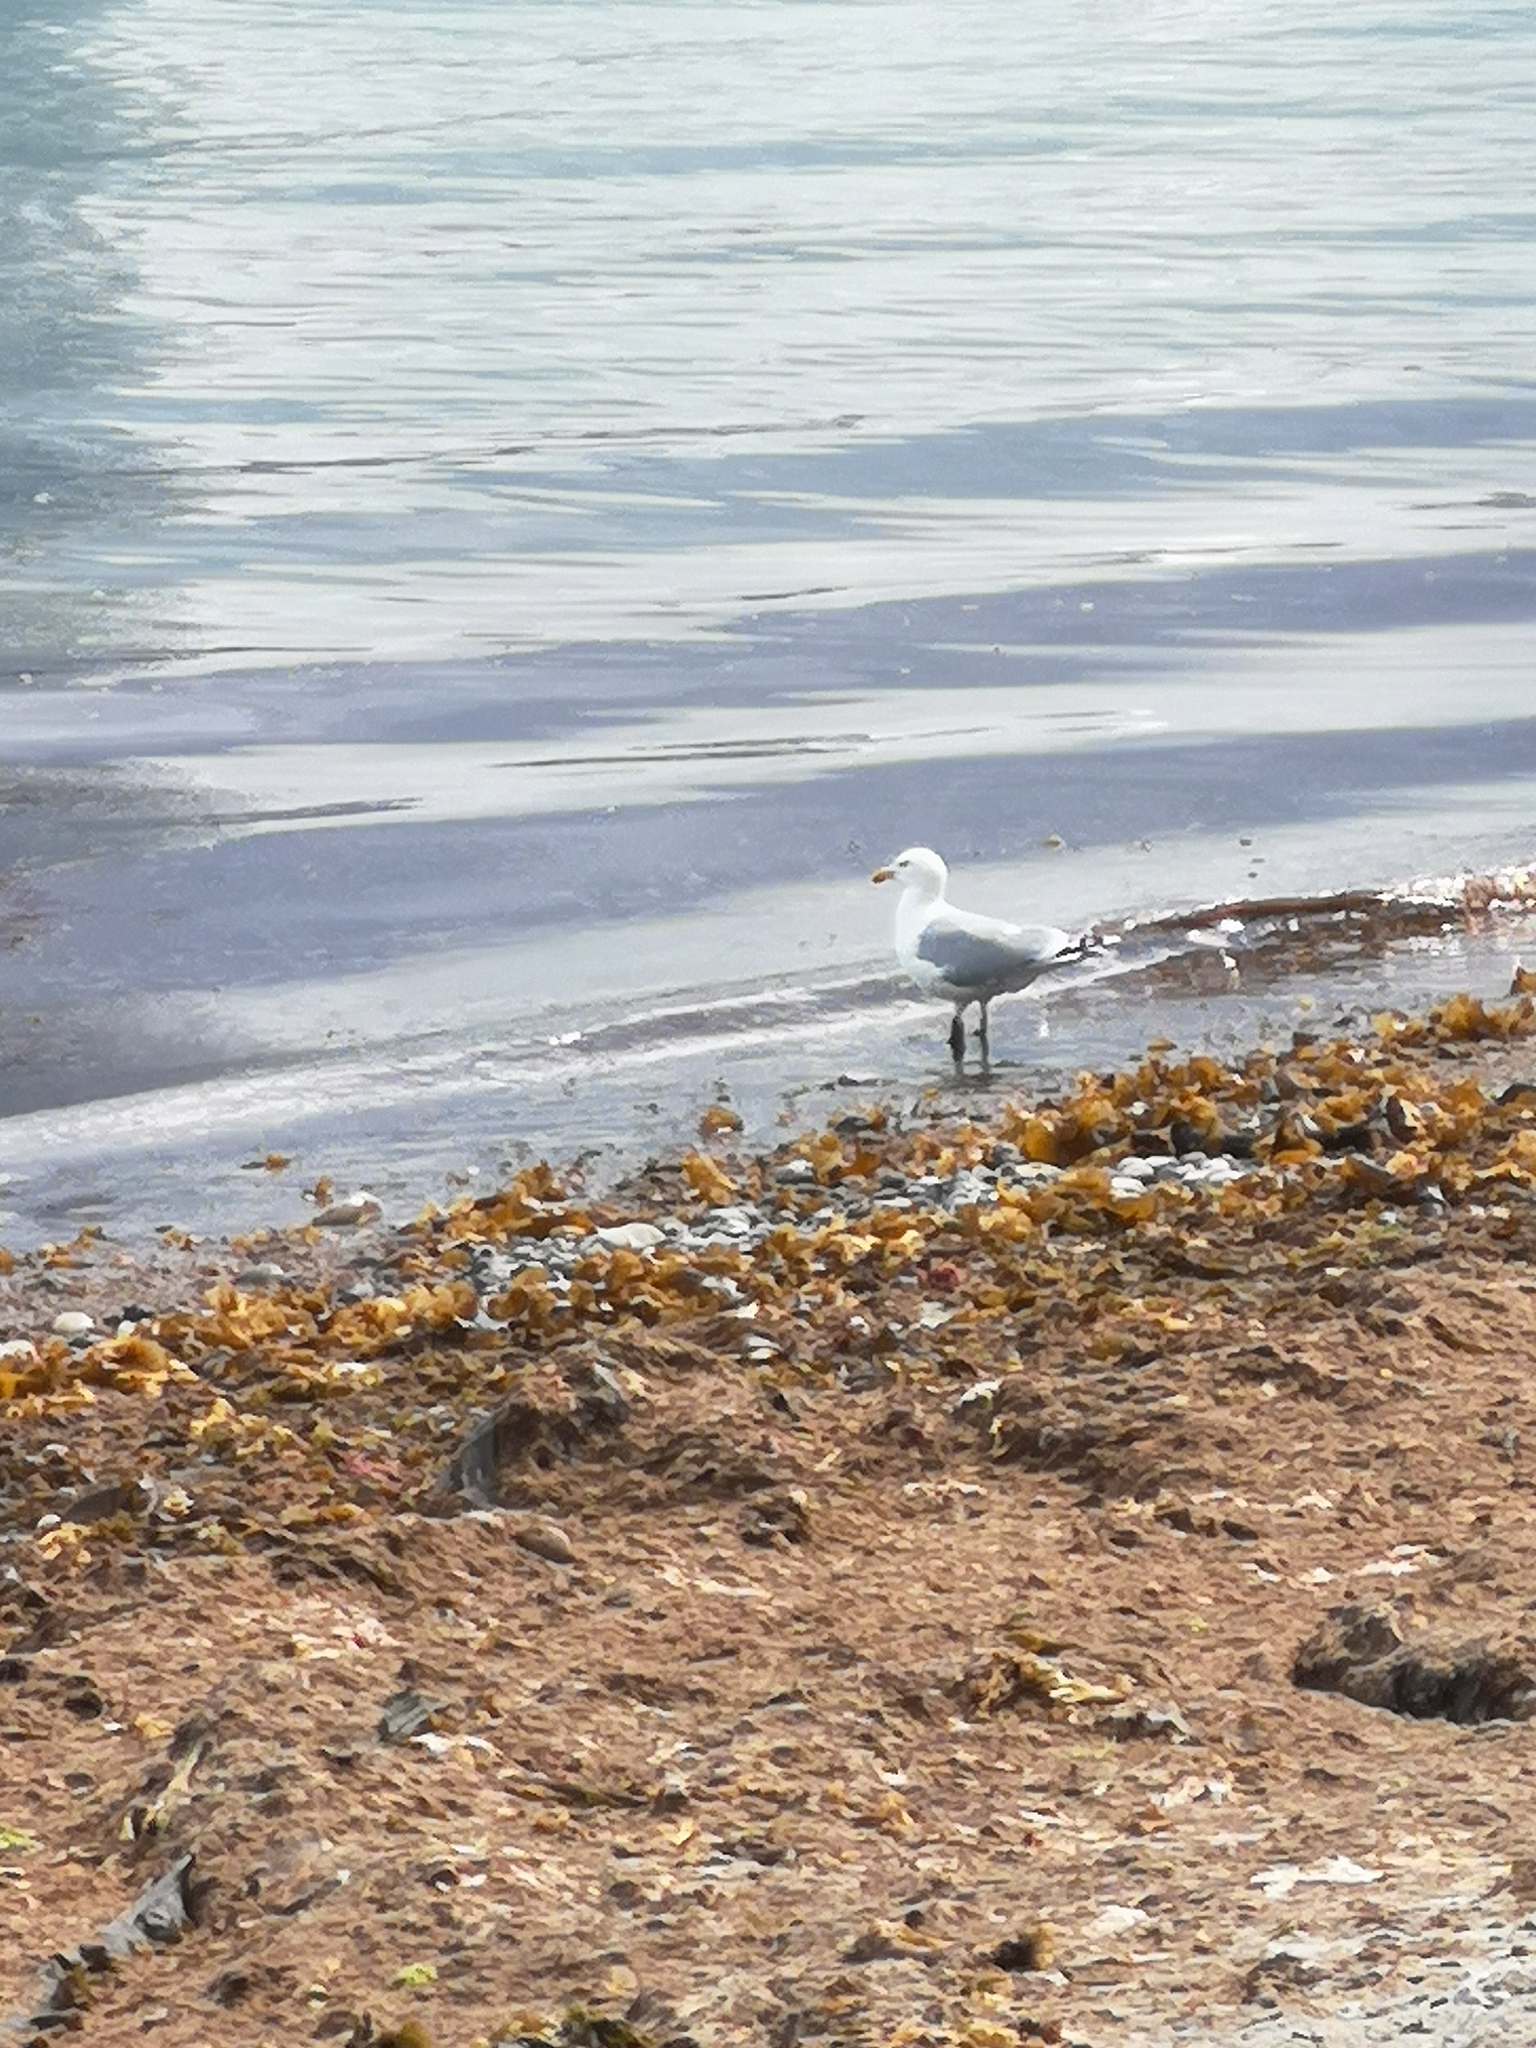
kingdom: Animalia
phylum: Chordata
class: Aves
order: Charadriiformes
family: Laridae
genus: Larus
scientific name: Larus argentatus
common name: Herring gull
